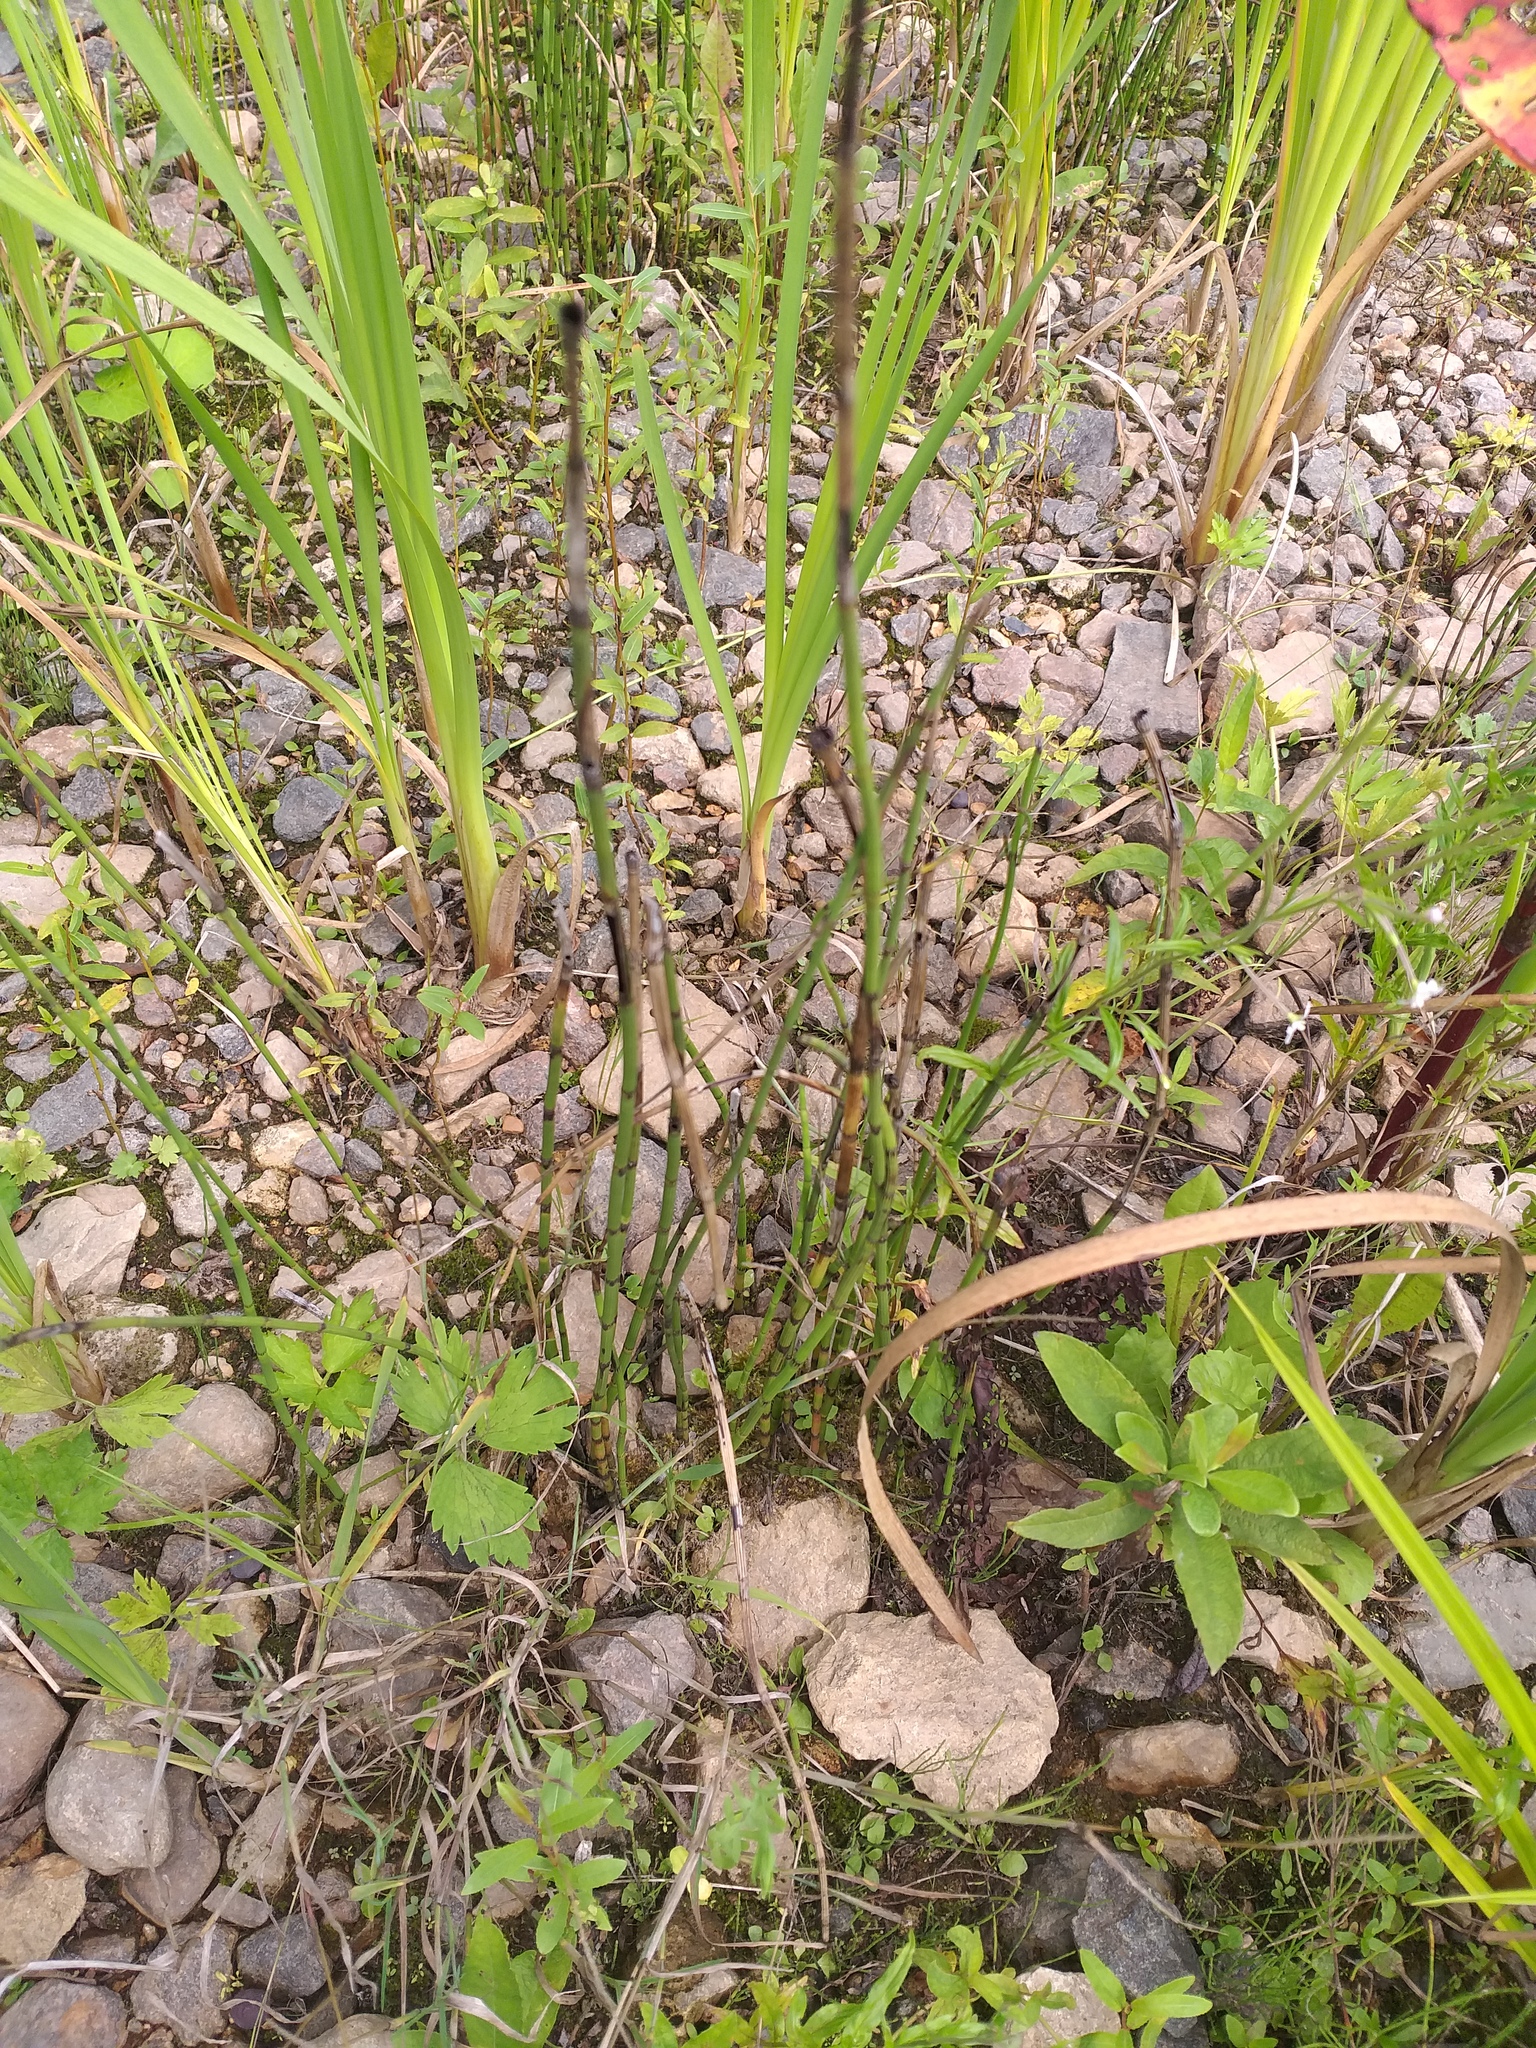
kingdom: Plantae
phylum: Tracheophyta
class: Polypodiopsida
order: Equisetales
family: Equisetaceae
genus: Equisetum
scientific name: Equisetum fluviatile
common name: Water horsetail
